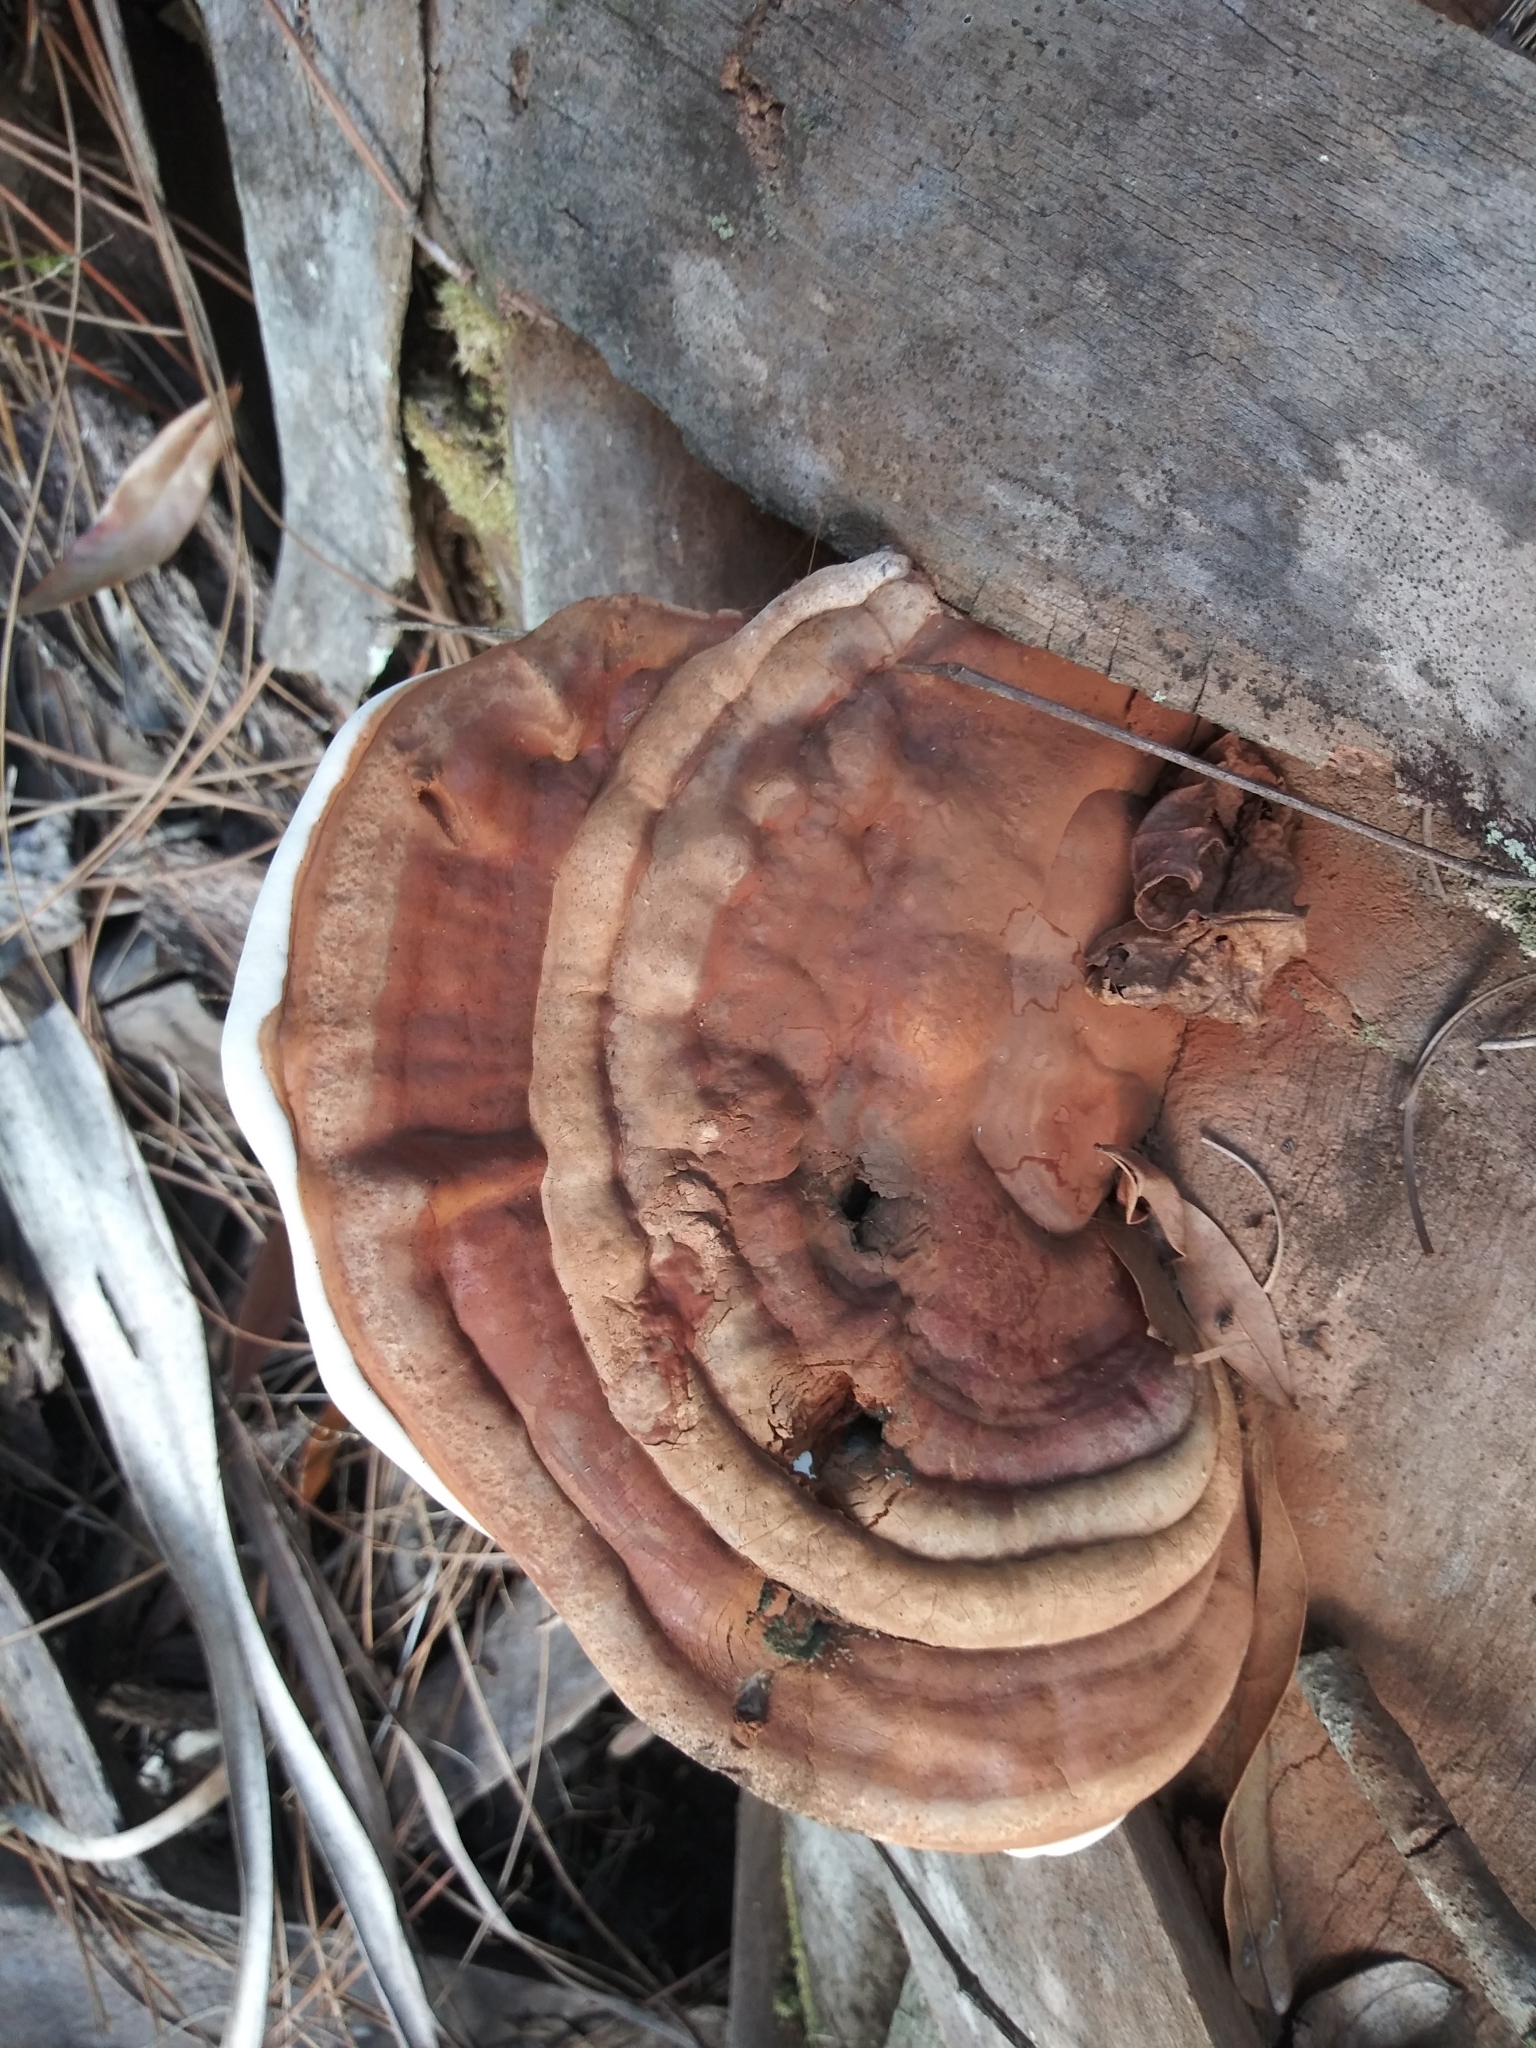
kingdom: Fungi
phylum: Basidiomycota
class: Agaricomycetes
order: Polyporales
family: Polyporaceae
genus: Ganoderma
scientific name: Ganoderma zonatum
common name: Ganoderma butt rot
